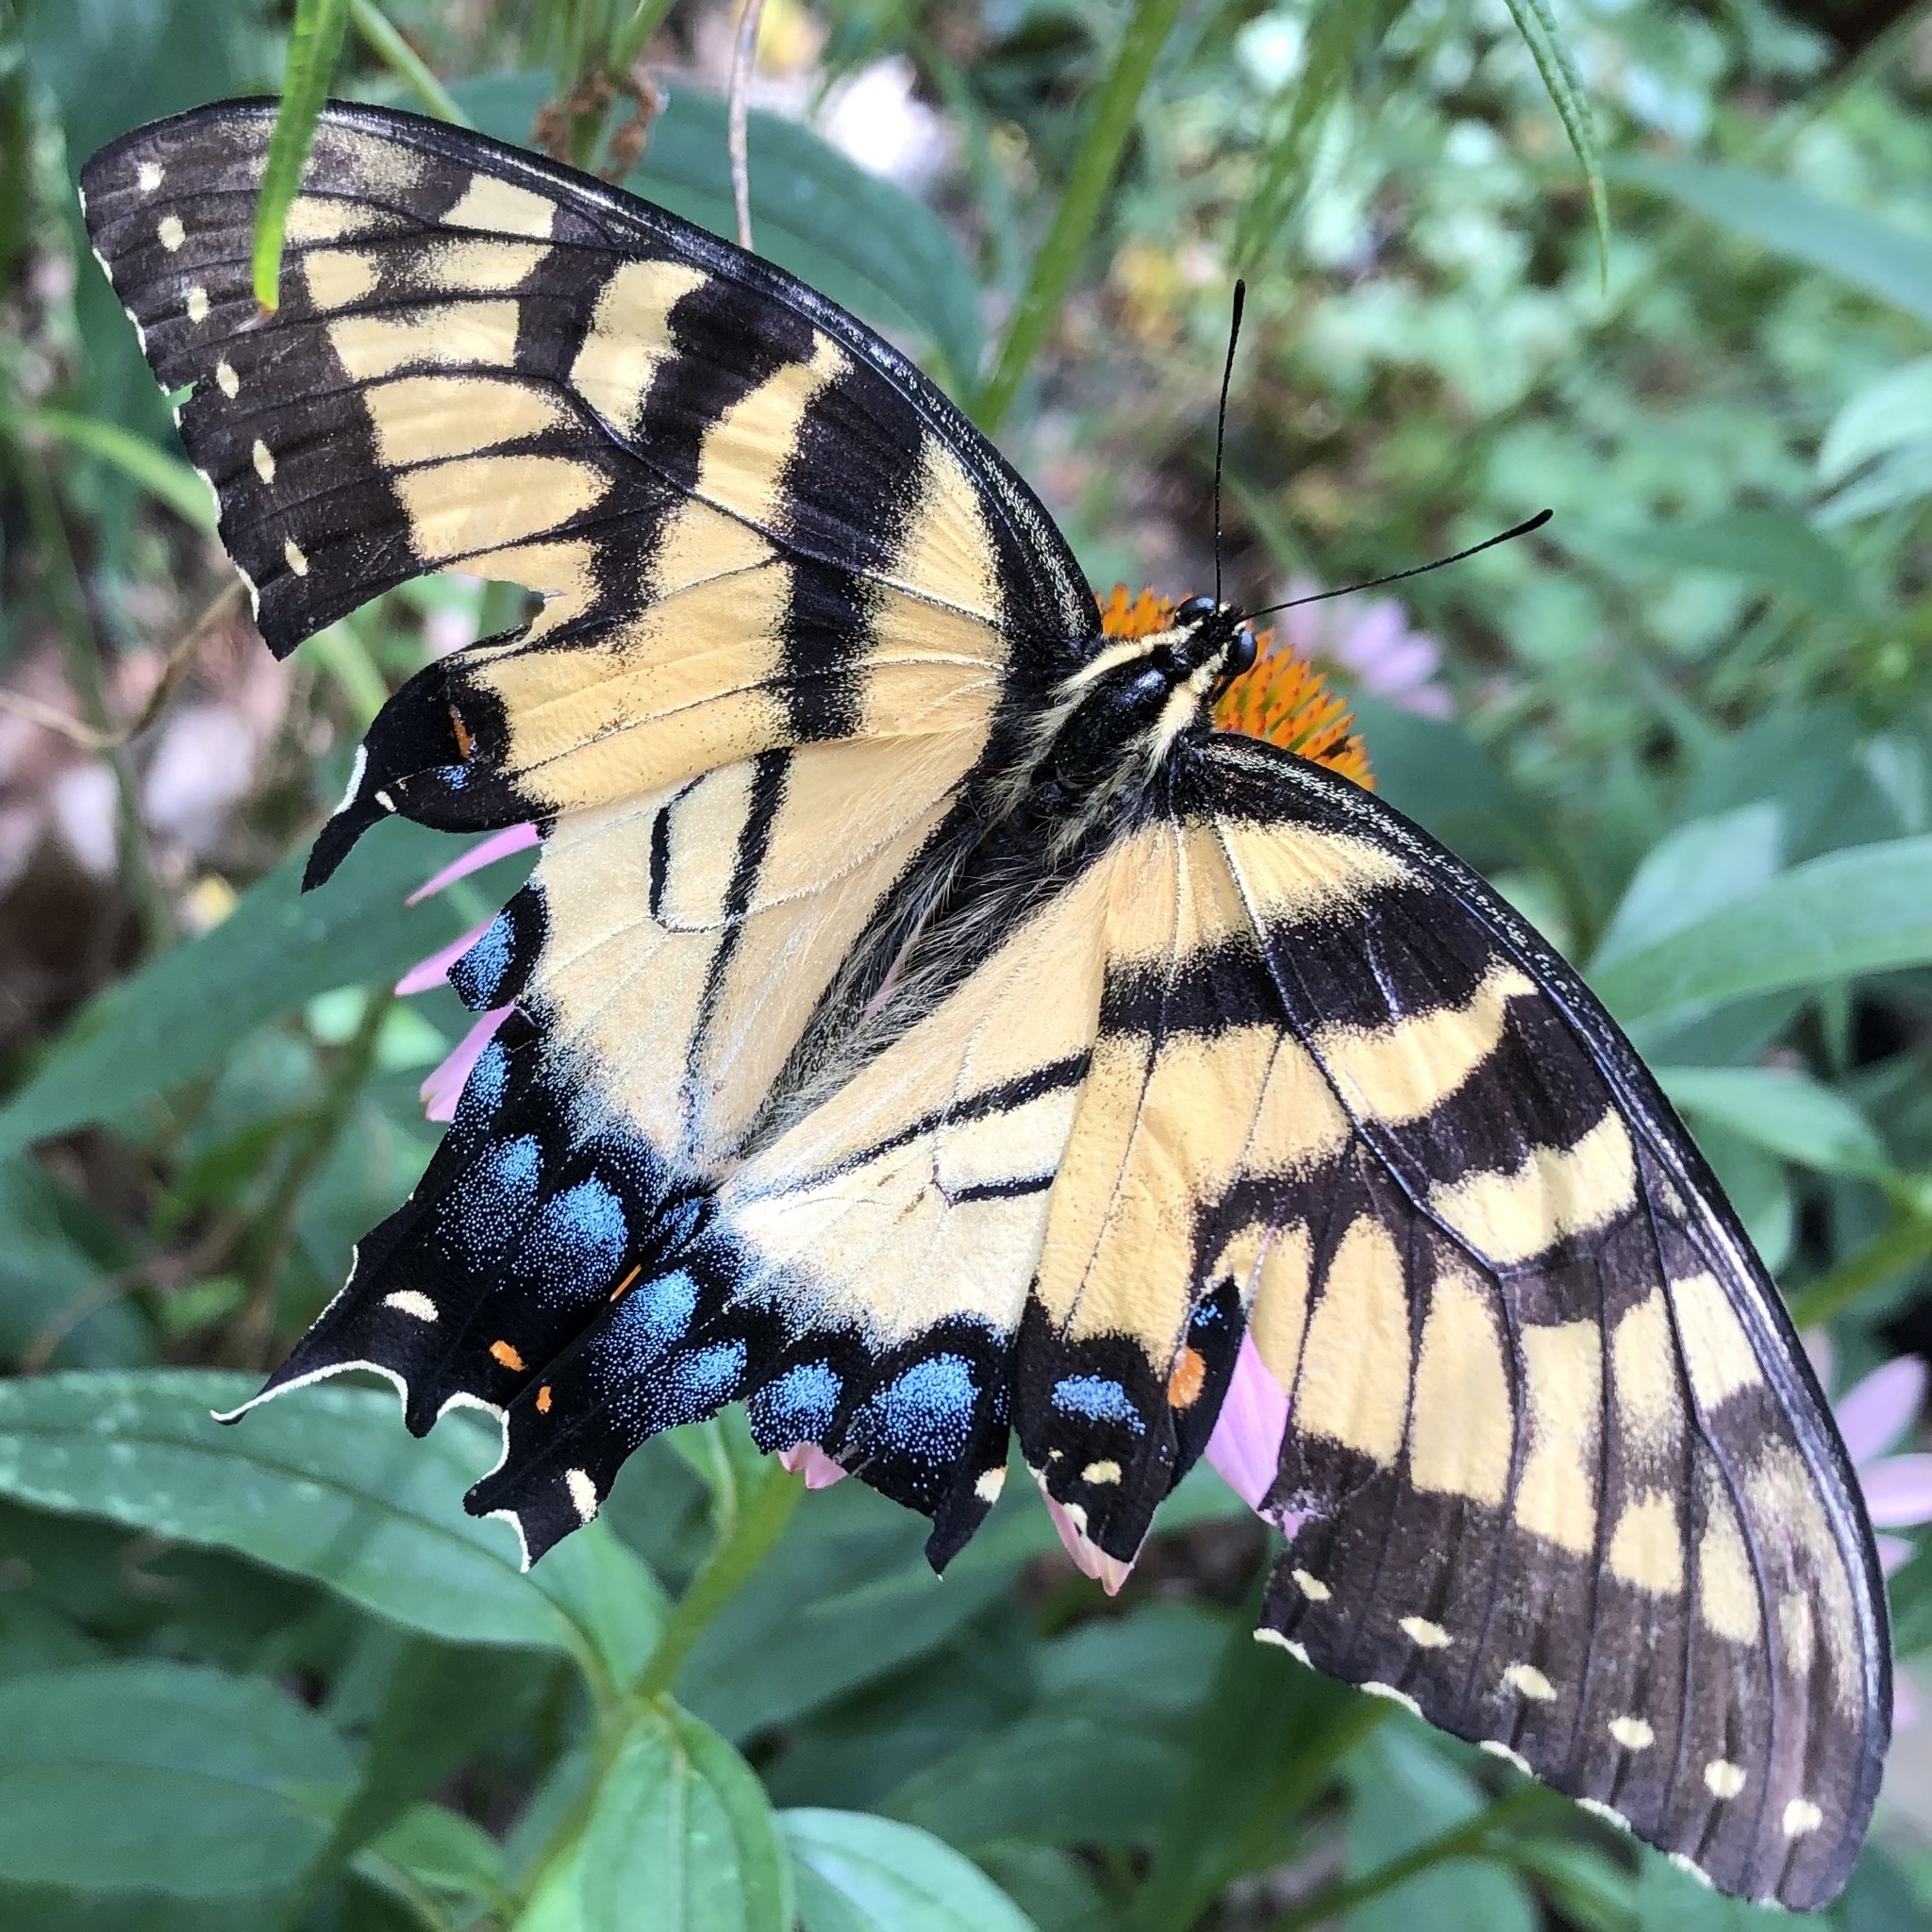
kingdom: Animalia
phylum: Arthropoda
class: Insecta
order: Lepidoptera
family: Papilionidae
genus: Papilio
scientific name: Papilio glaucus
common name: Tiger swallowtail
